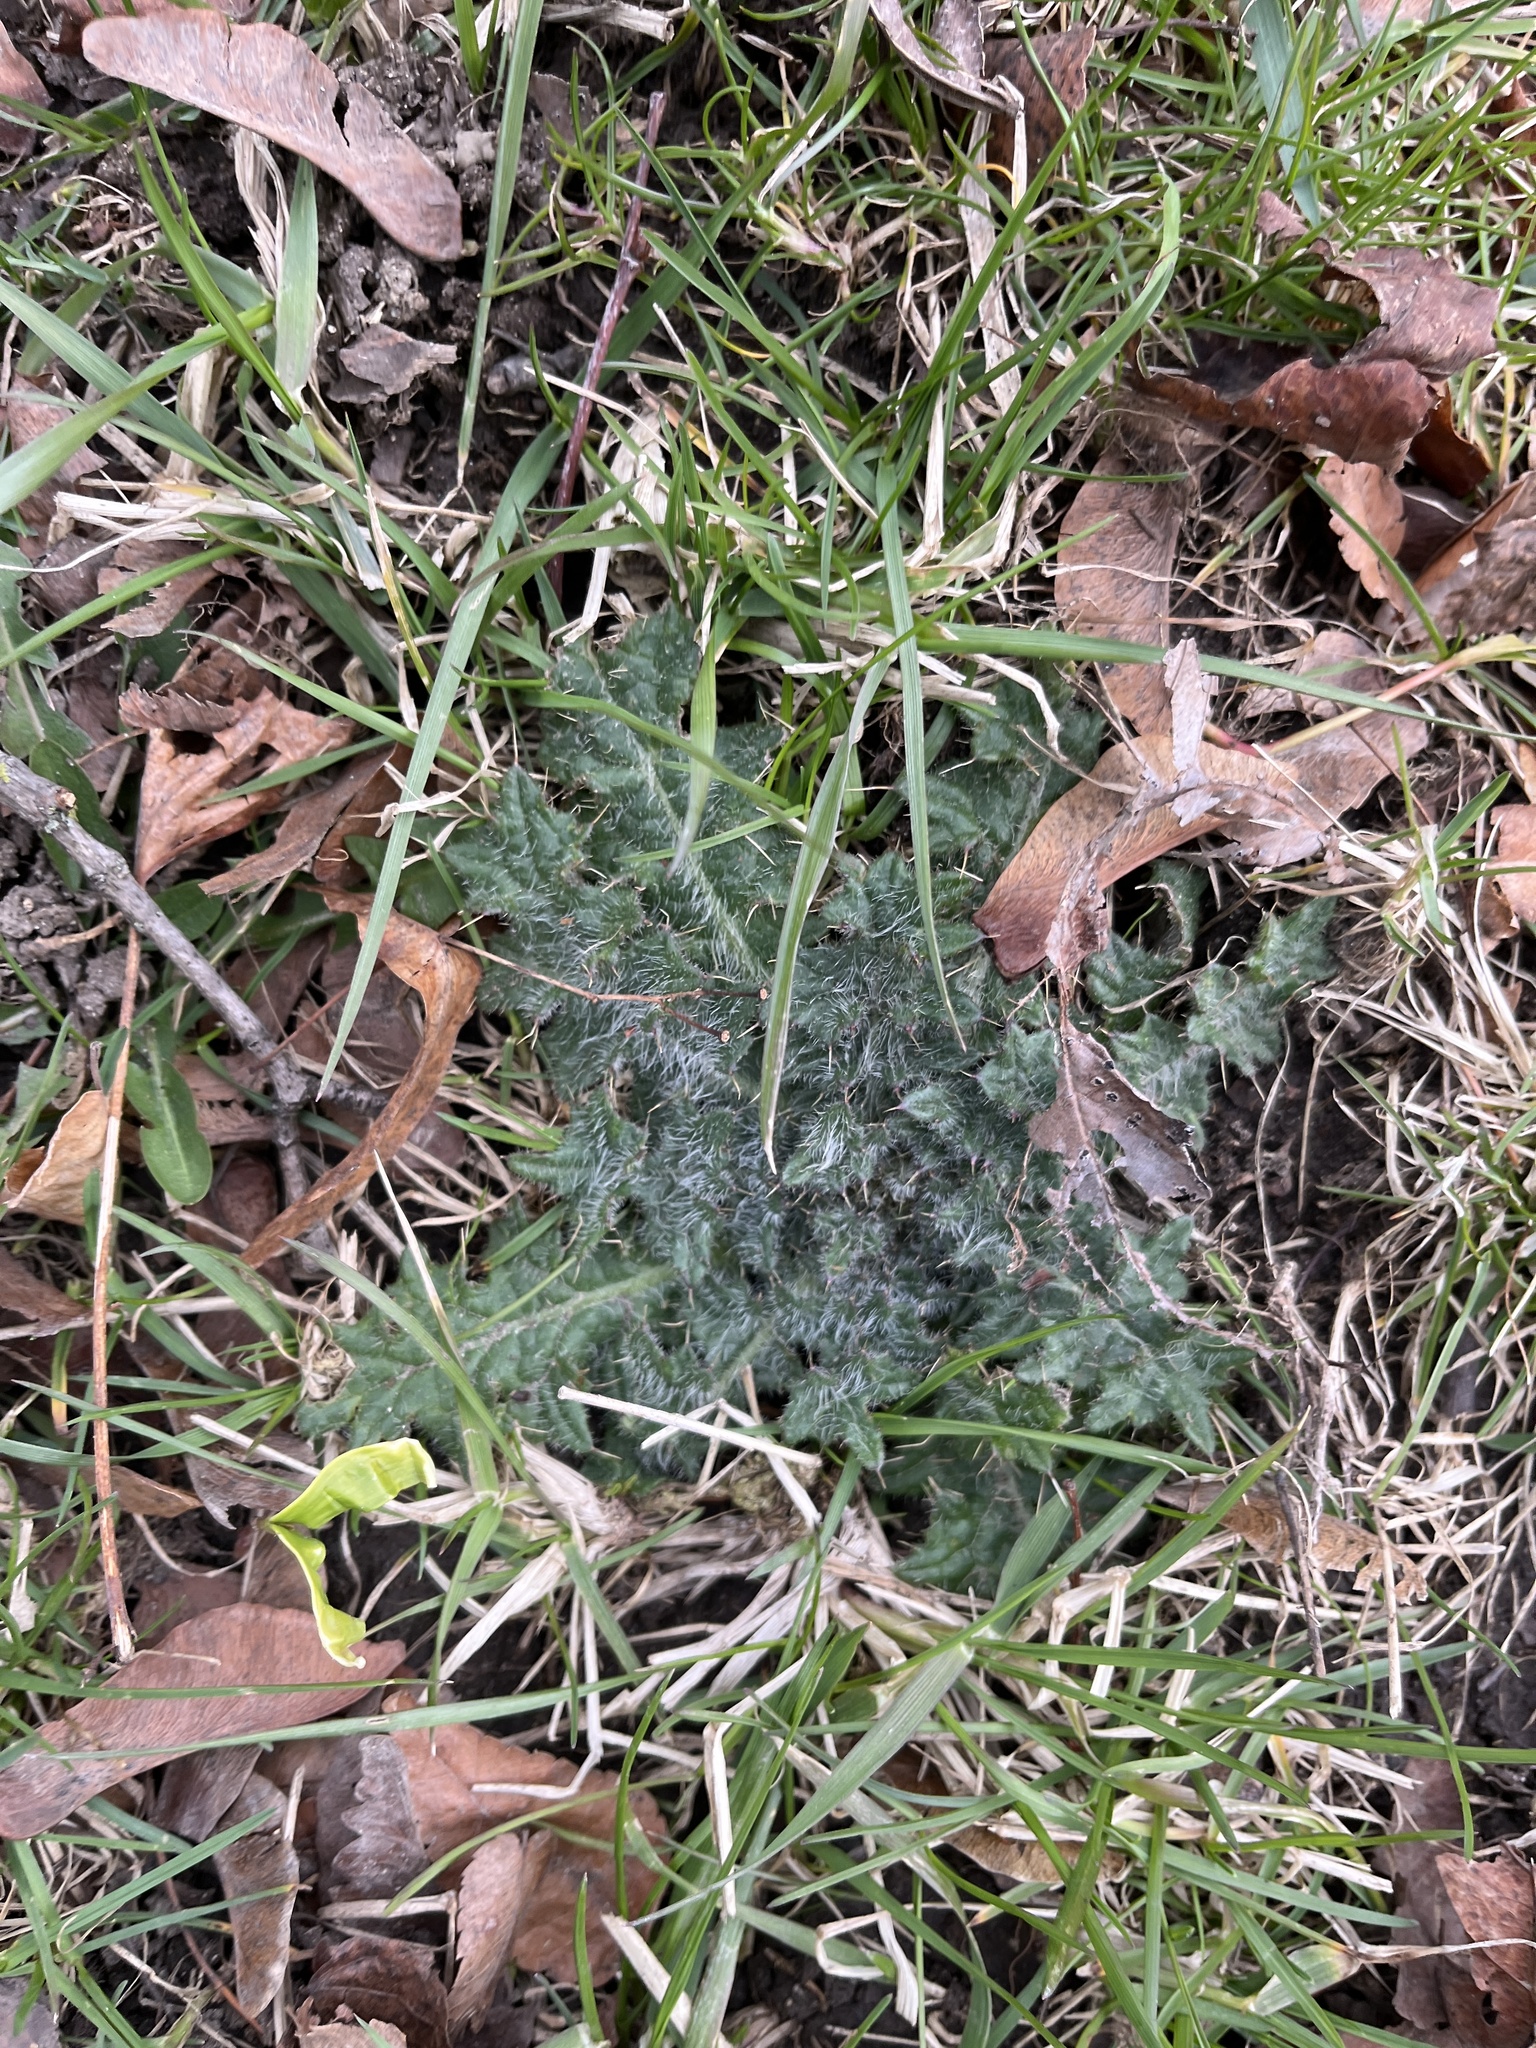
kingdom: Plantae
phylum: Tracheophyta
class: Magnoliopsida
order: Asterales
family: Asteraceae
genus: Cirsium
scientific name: Cirsium vulgare
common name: Bull thistle
